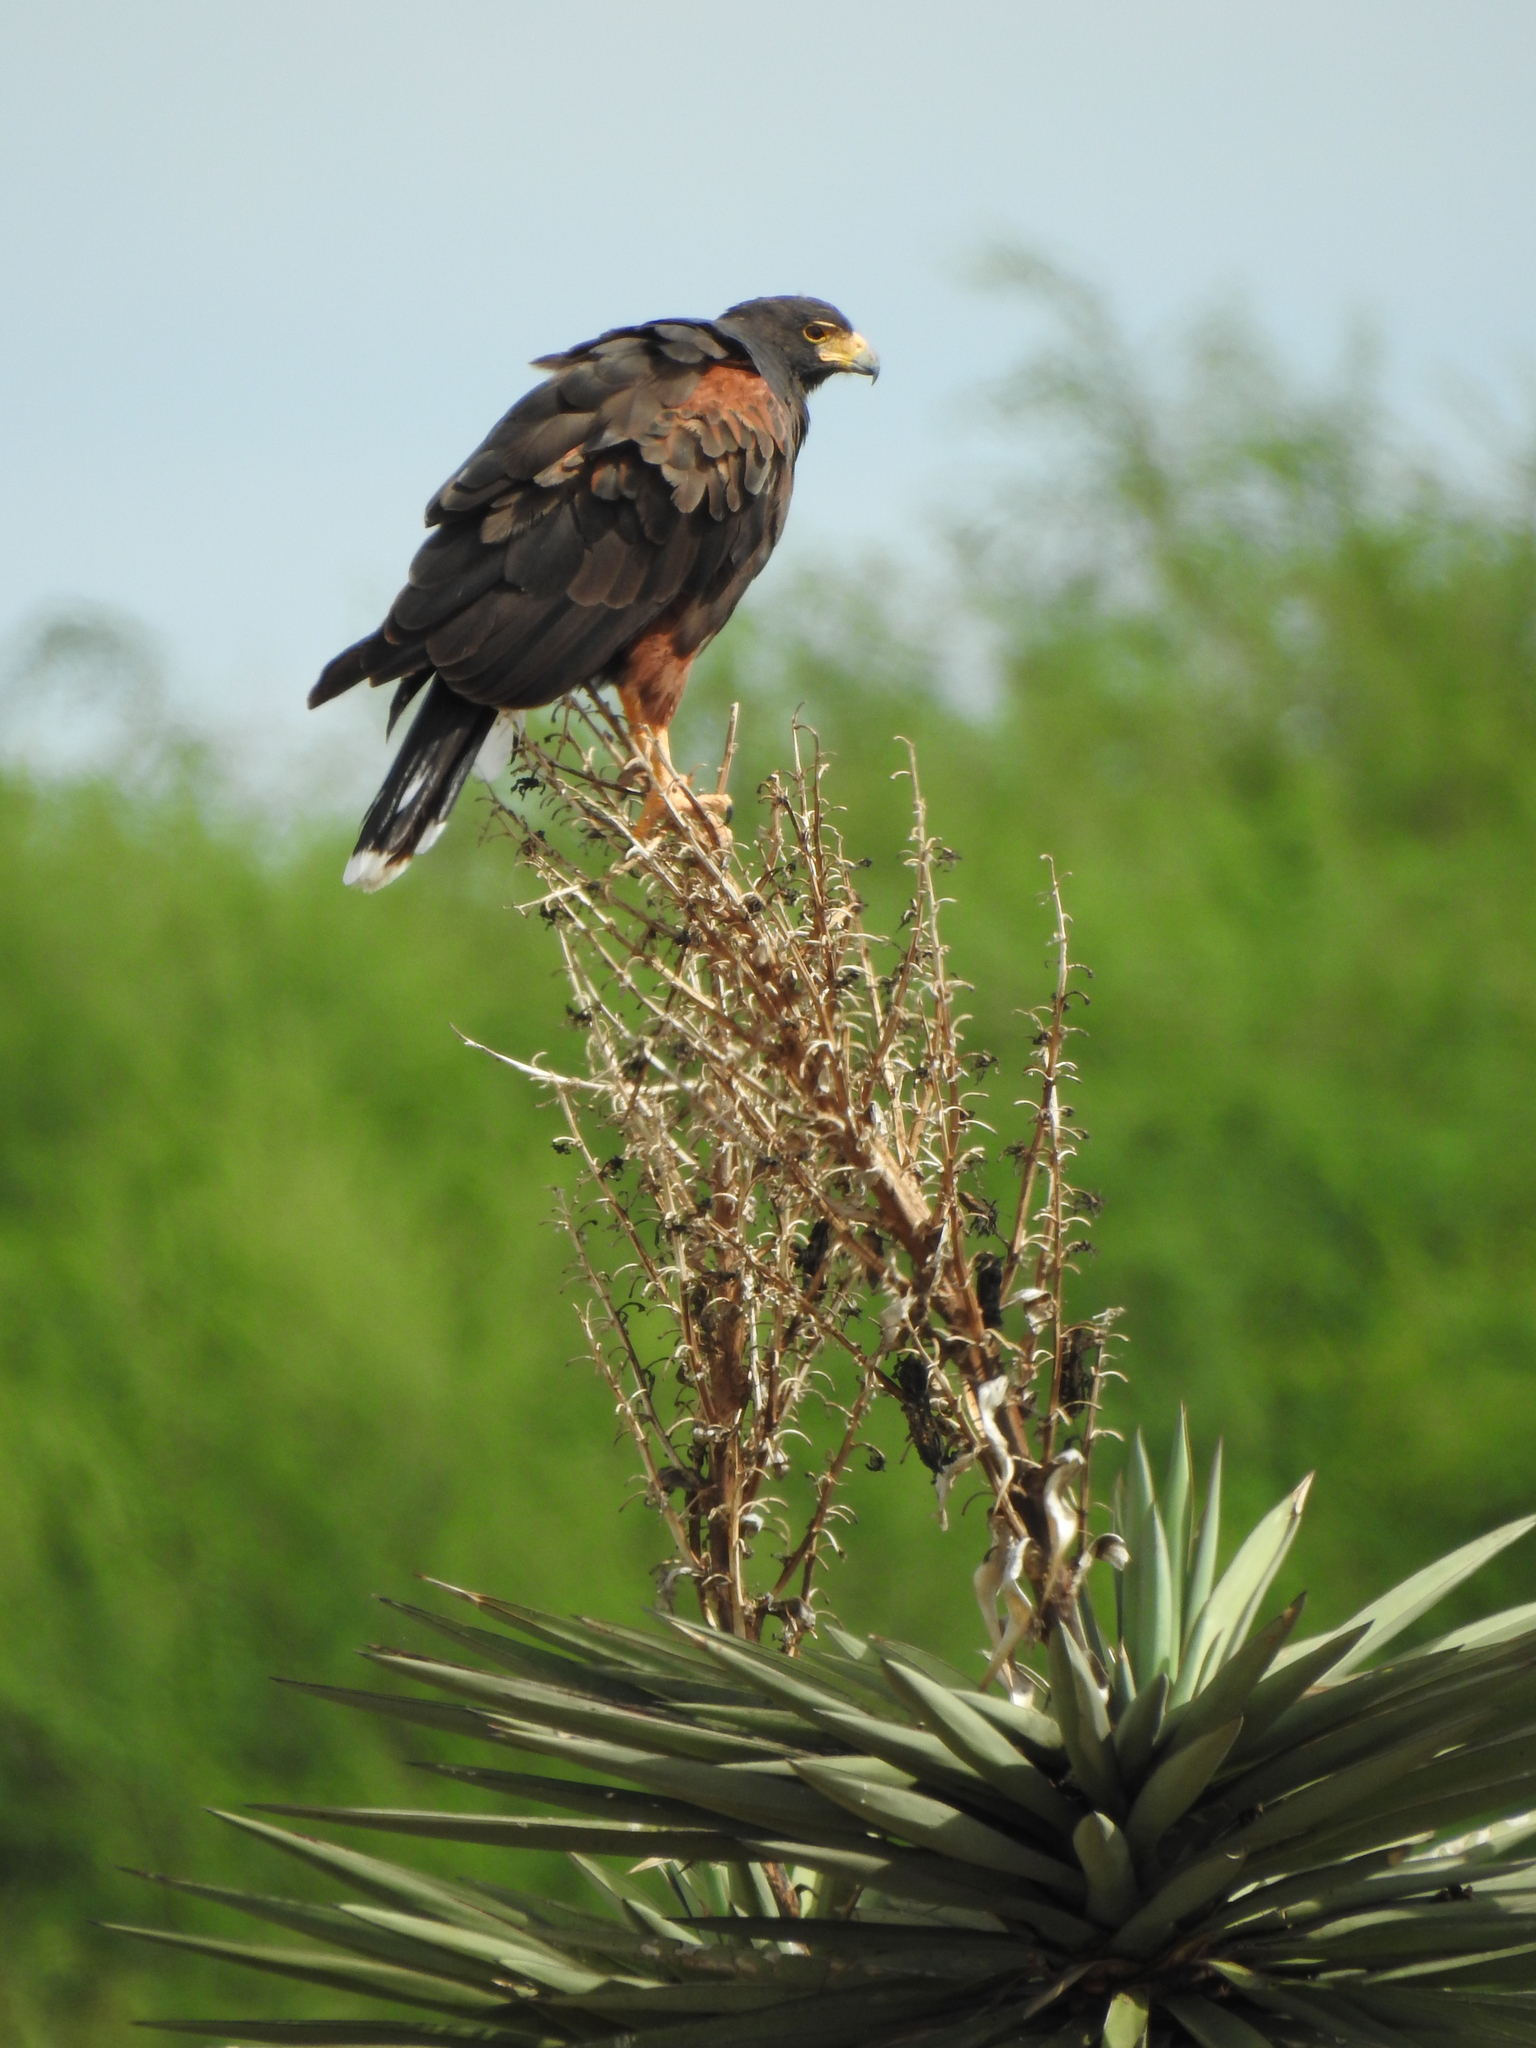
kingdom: Animalia
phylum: Chordata
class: Aves
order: Accipitriformes
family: Accipitridae
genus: Parabuteo
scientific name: Parabuteo unicinctus
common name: Harris's hawk
